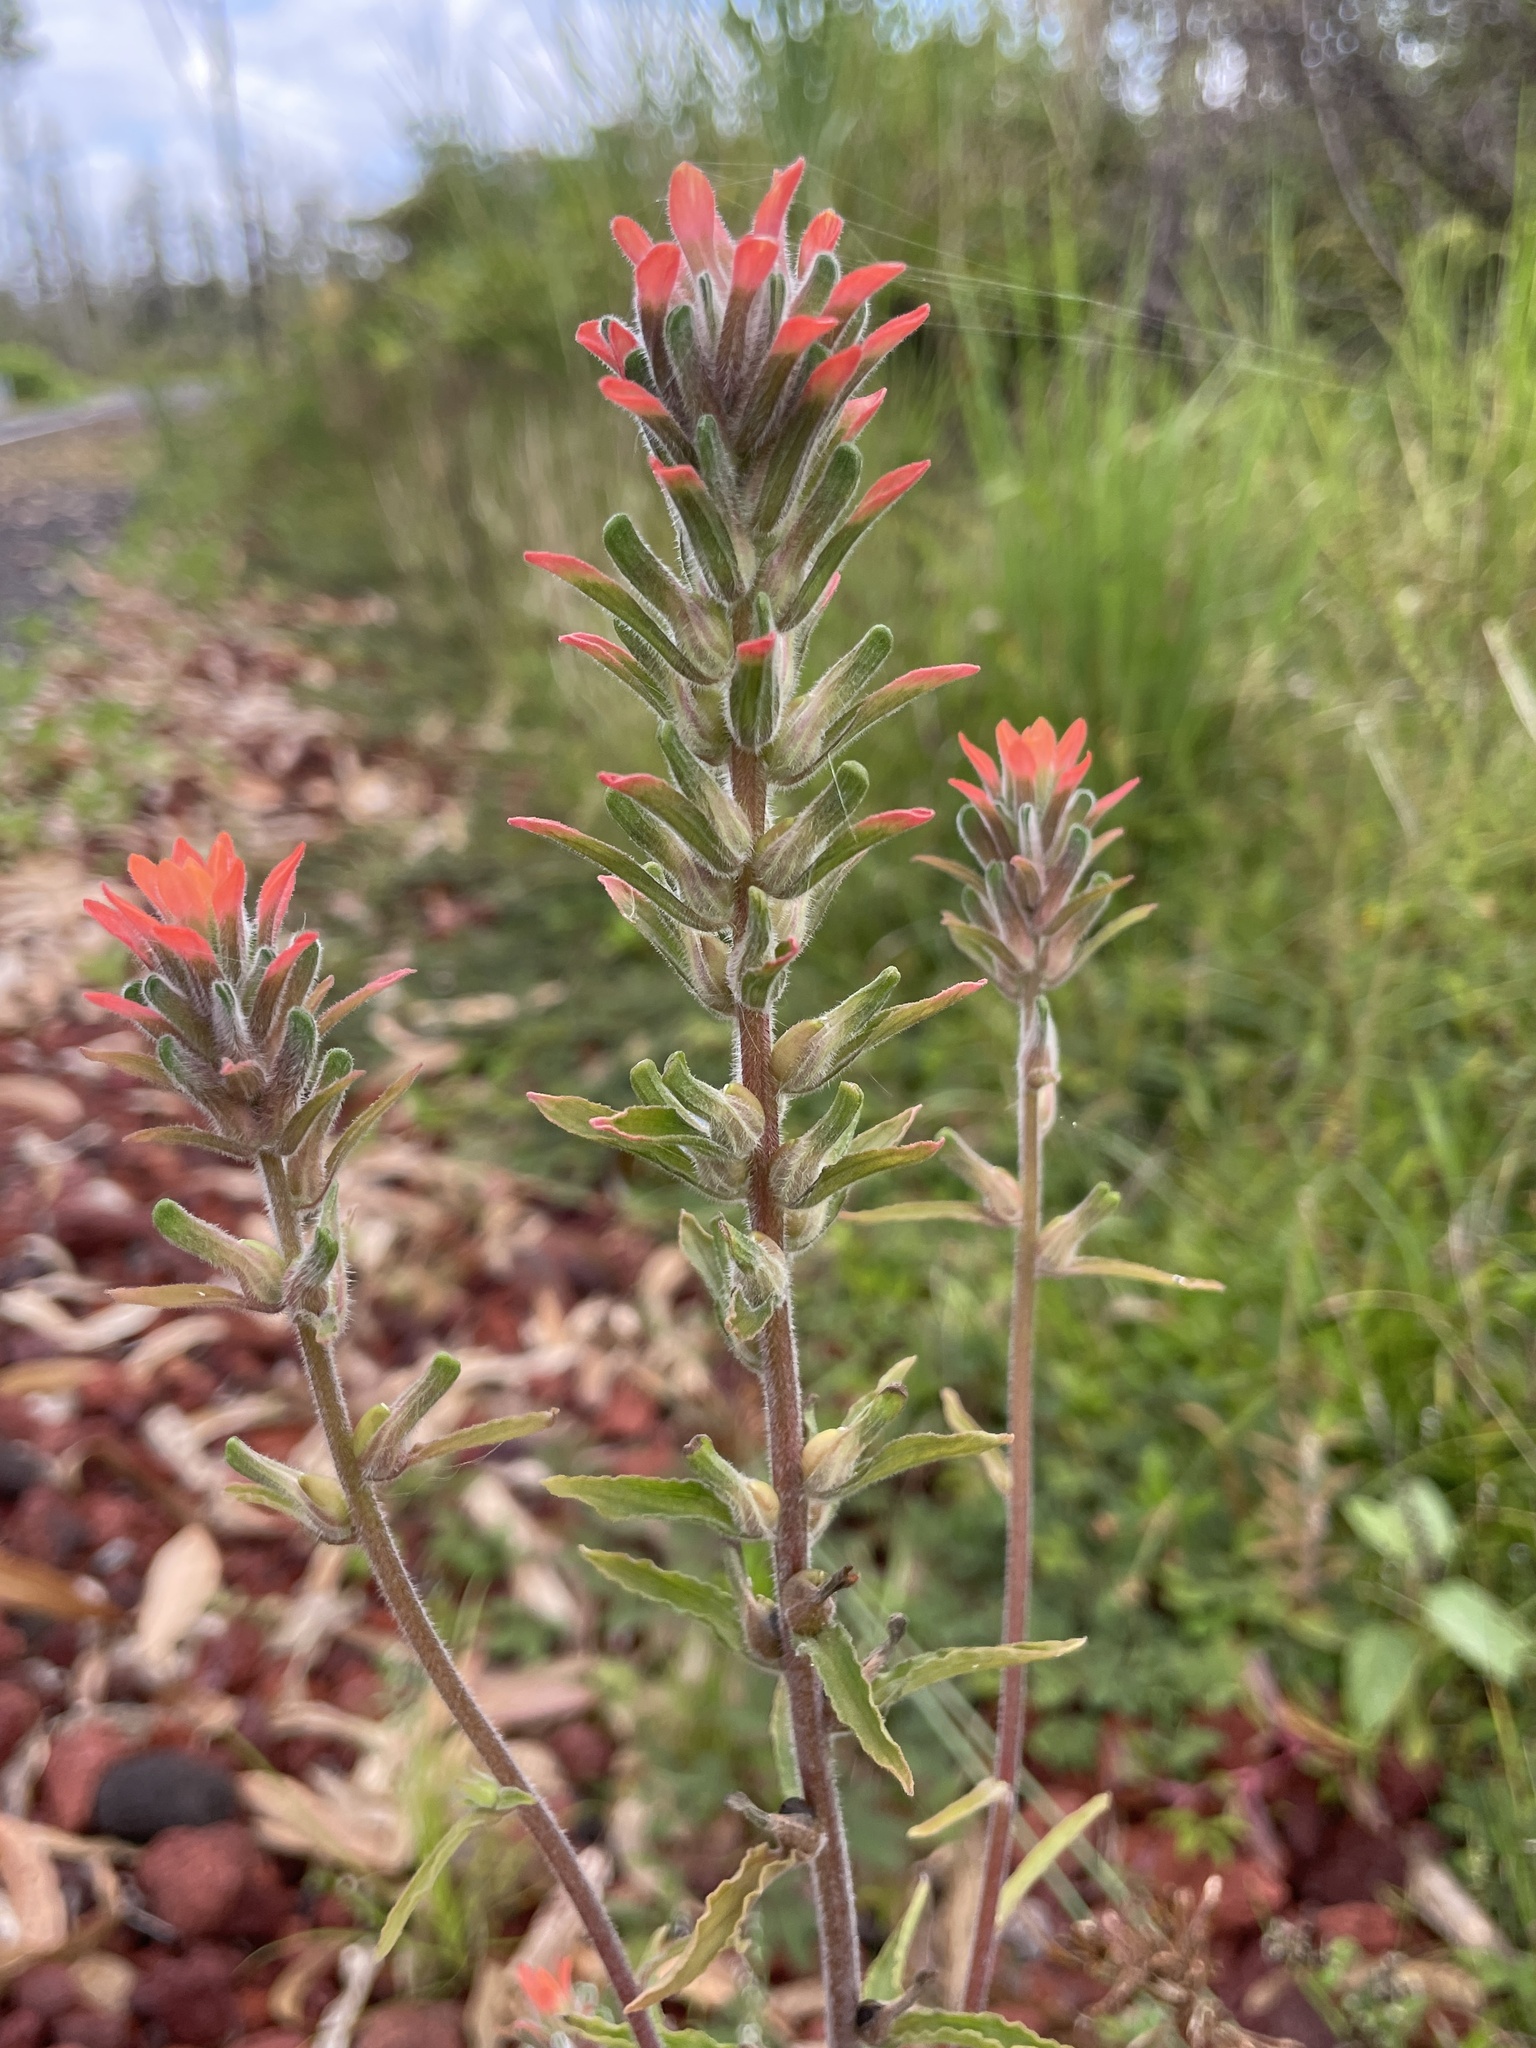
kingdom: Plantae
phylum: Tracheophyta
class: Magnoliopsida
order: Lamiales
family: Orobanchaceae
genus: Castilleja
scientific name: Castilleja arvensis
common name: Indian paintbrush
